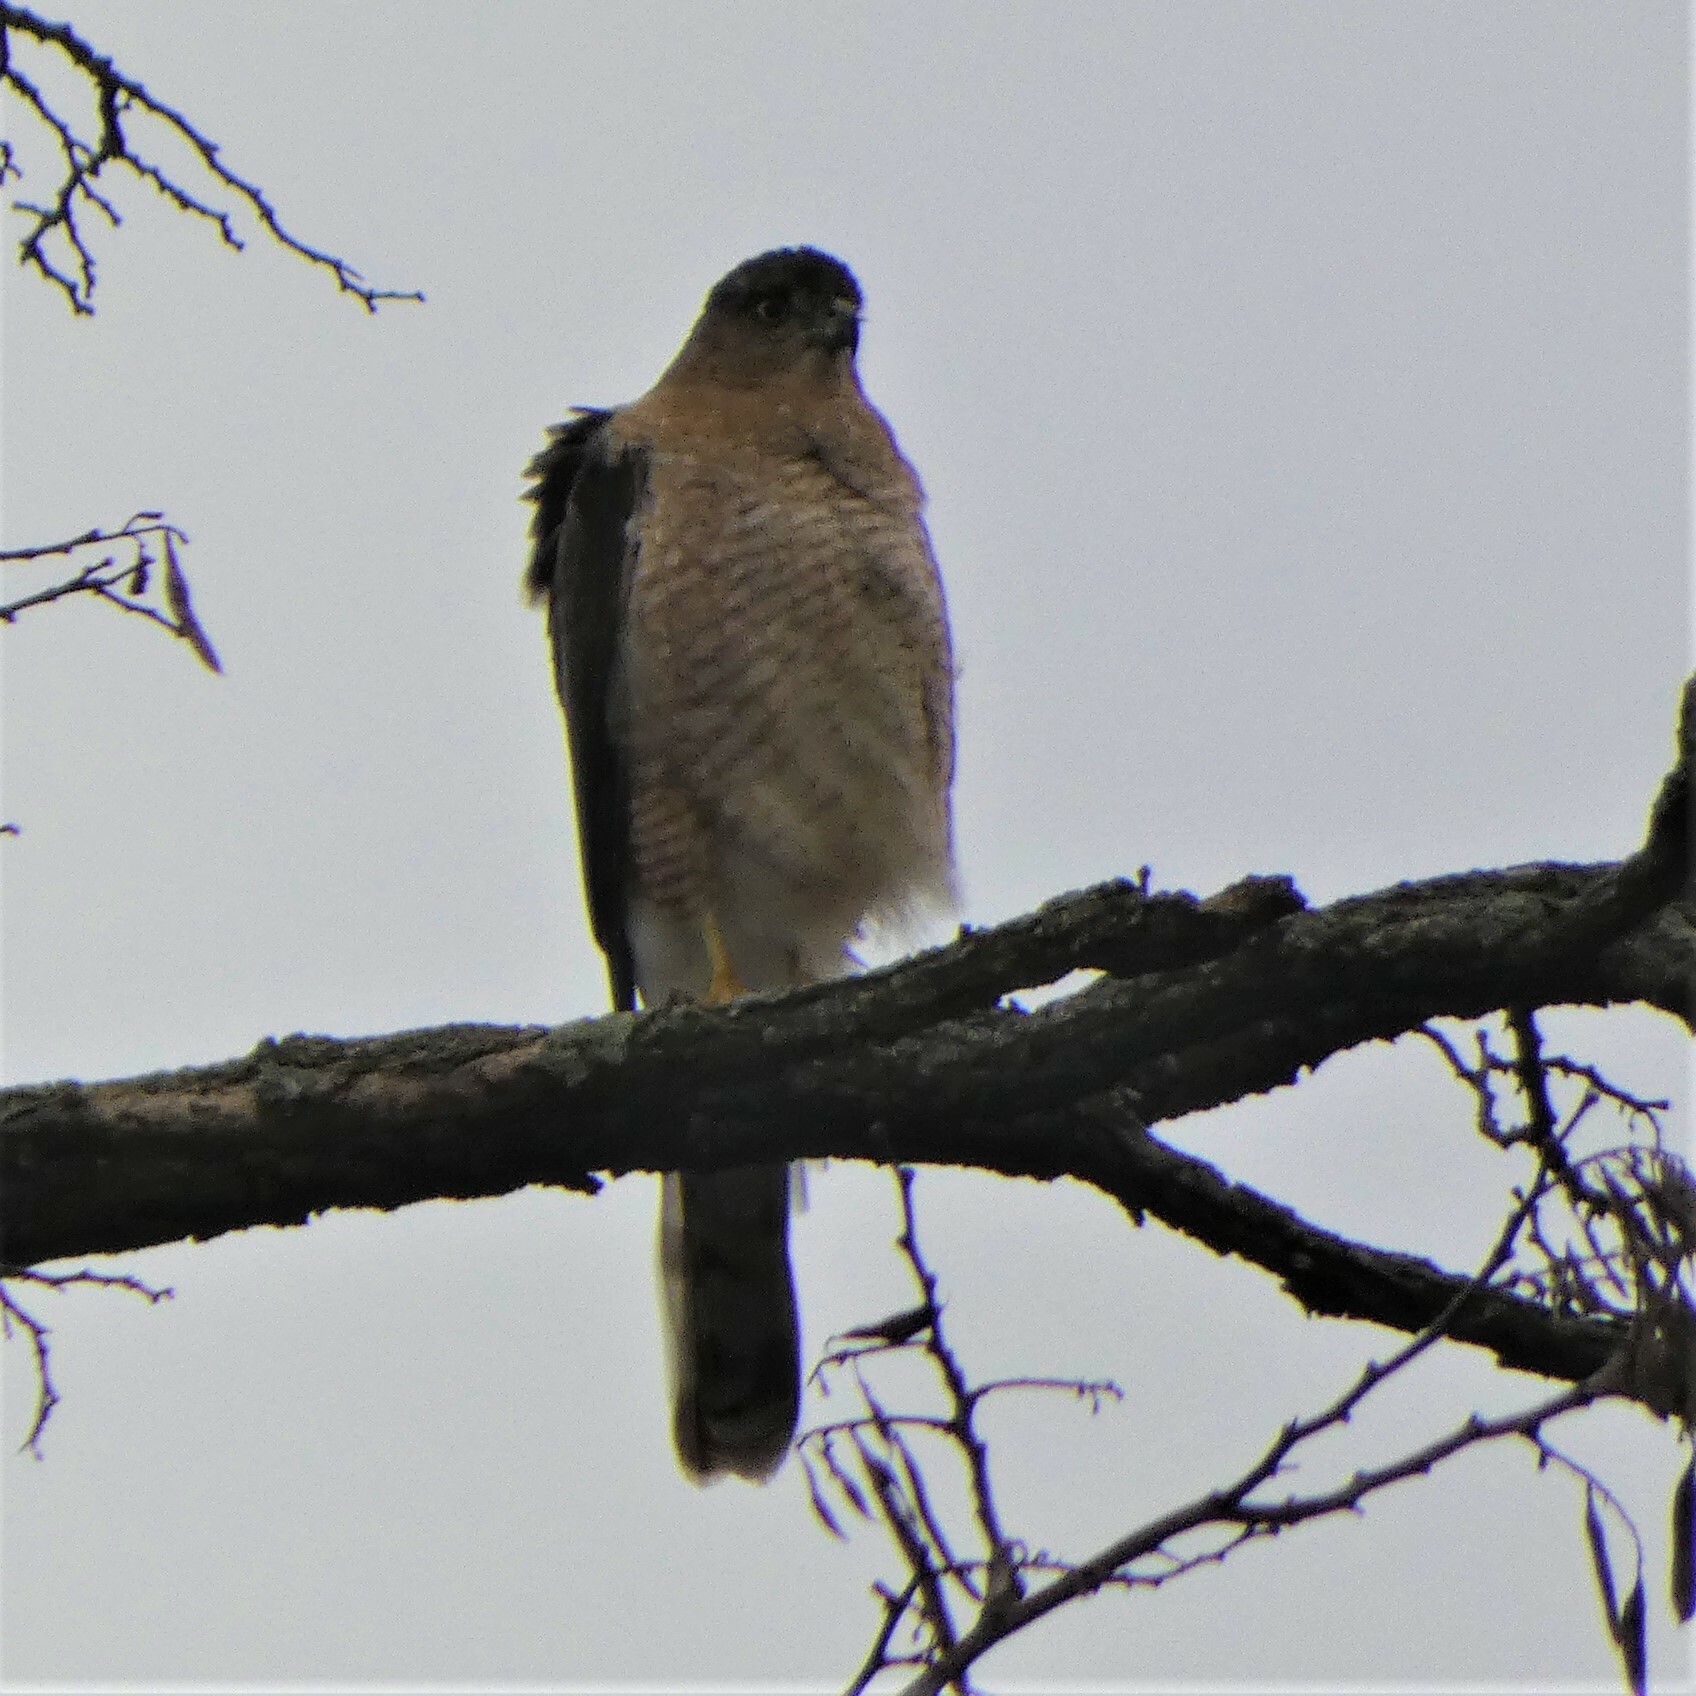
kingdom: Animalia
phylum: Chordata
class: Aves
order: Accipitriformes
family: Accipitridae
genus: Accipiter
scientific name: Accipiter cooperii
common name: Cooper's hawk
